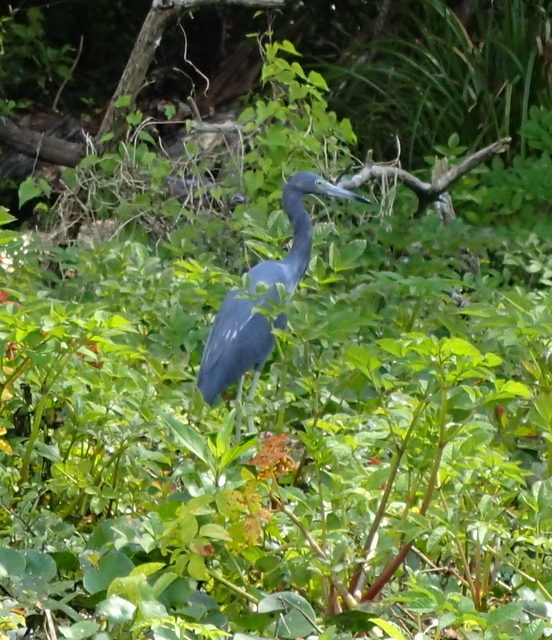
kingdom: Animalia
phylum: Chordata
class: Aves
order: Pelecaniformes
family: Ardeidae
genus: Egretta
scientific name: Egretta caerulea
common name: Little blue heron
